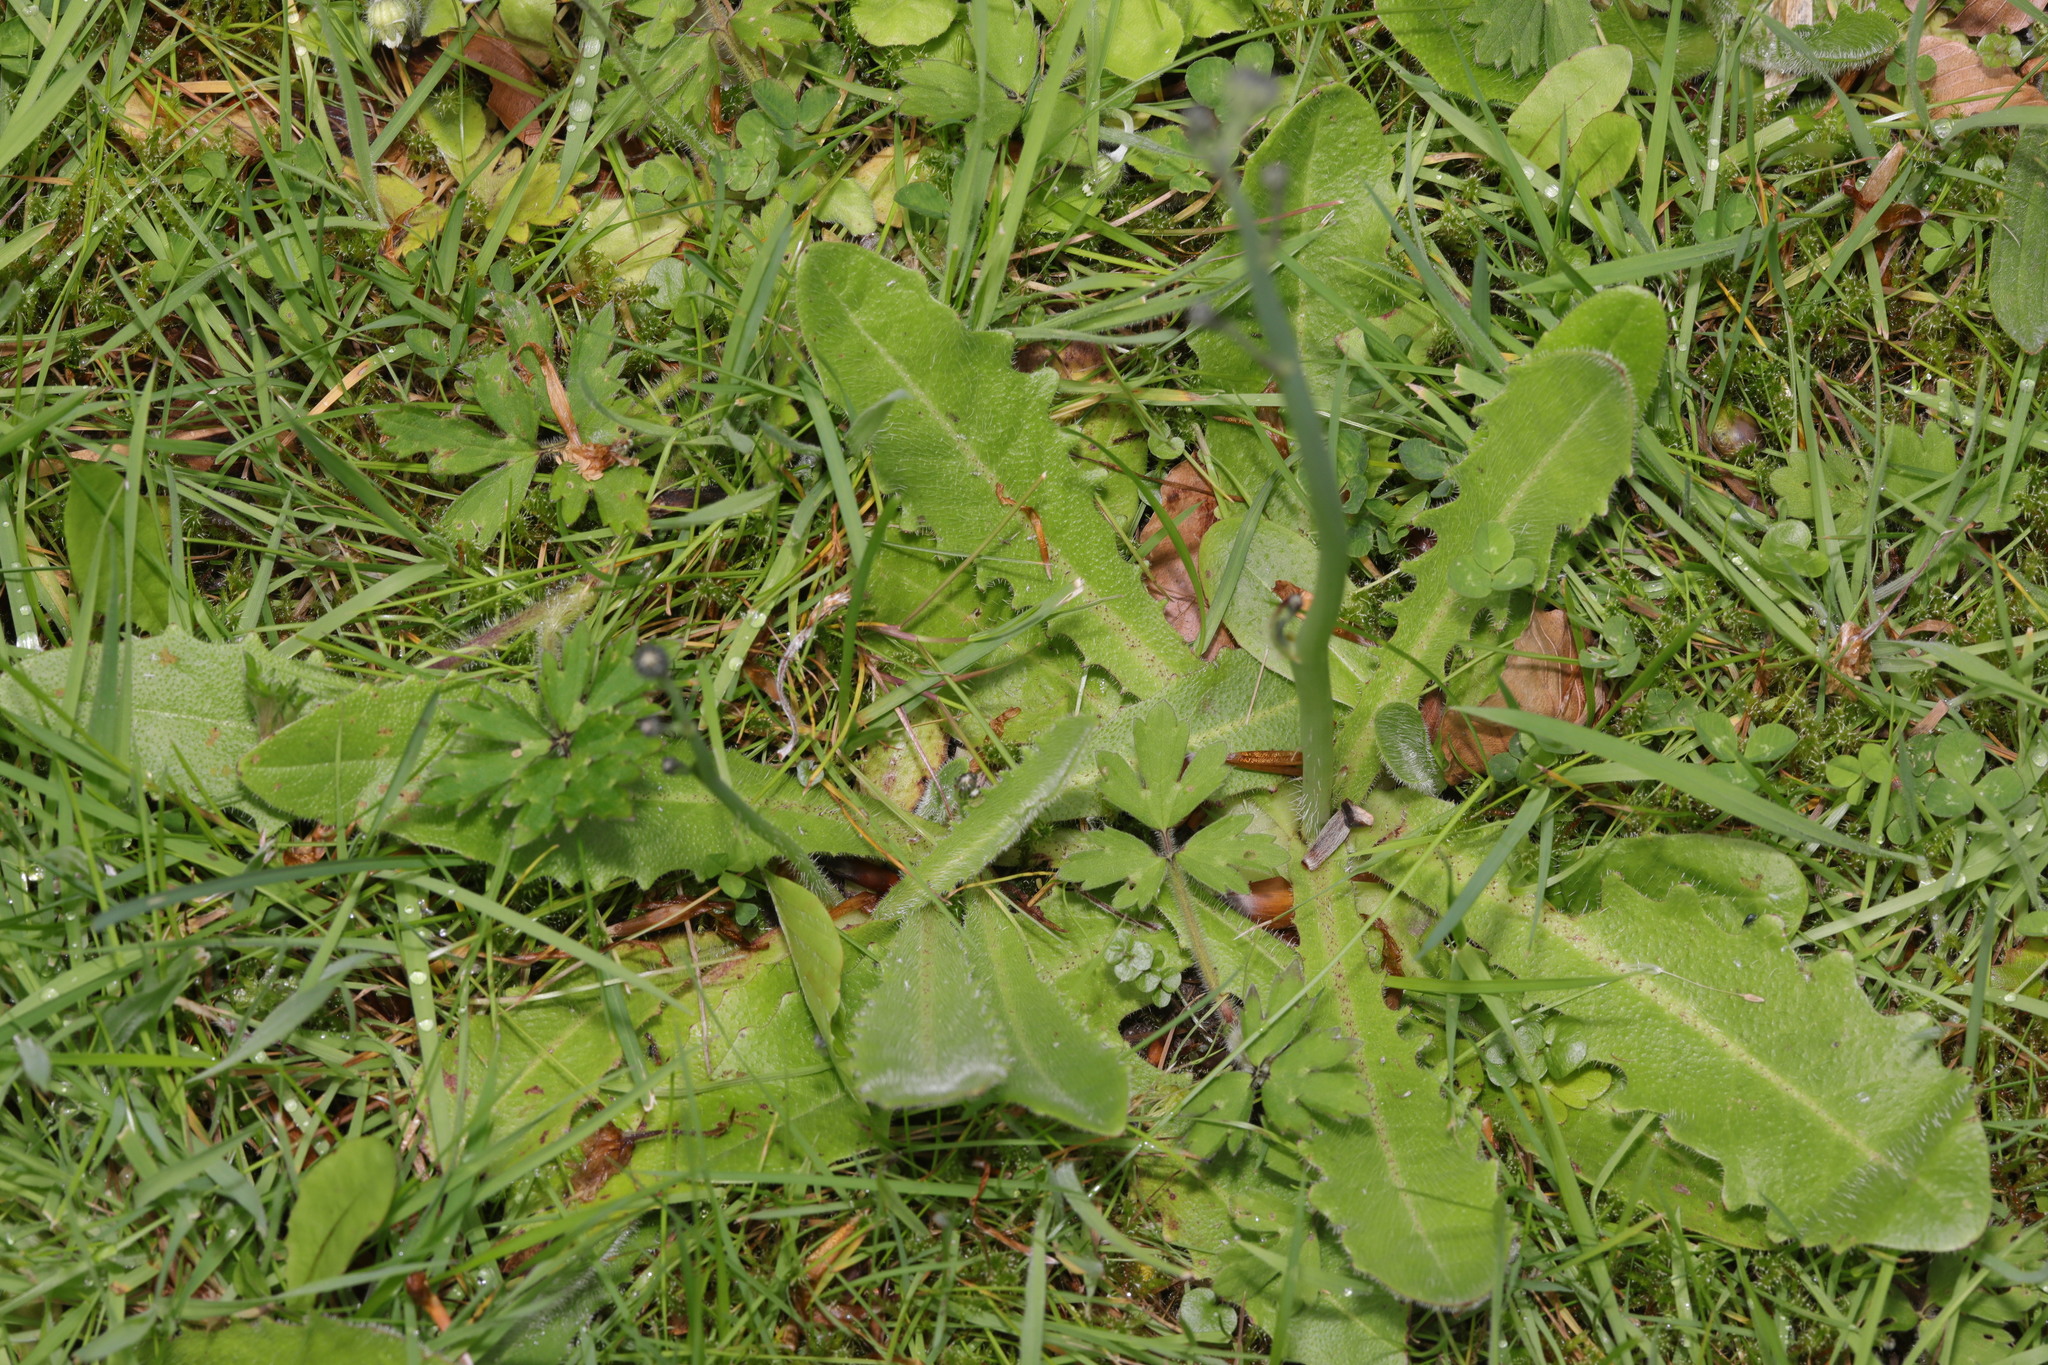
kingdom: Plantae
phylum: Tracheophyta
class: Magnoliopsida
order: Asterales
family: Asteraceae
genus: Hypochaeris
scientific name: Hypochaeris radicata
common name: Flatweed
